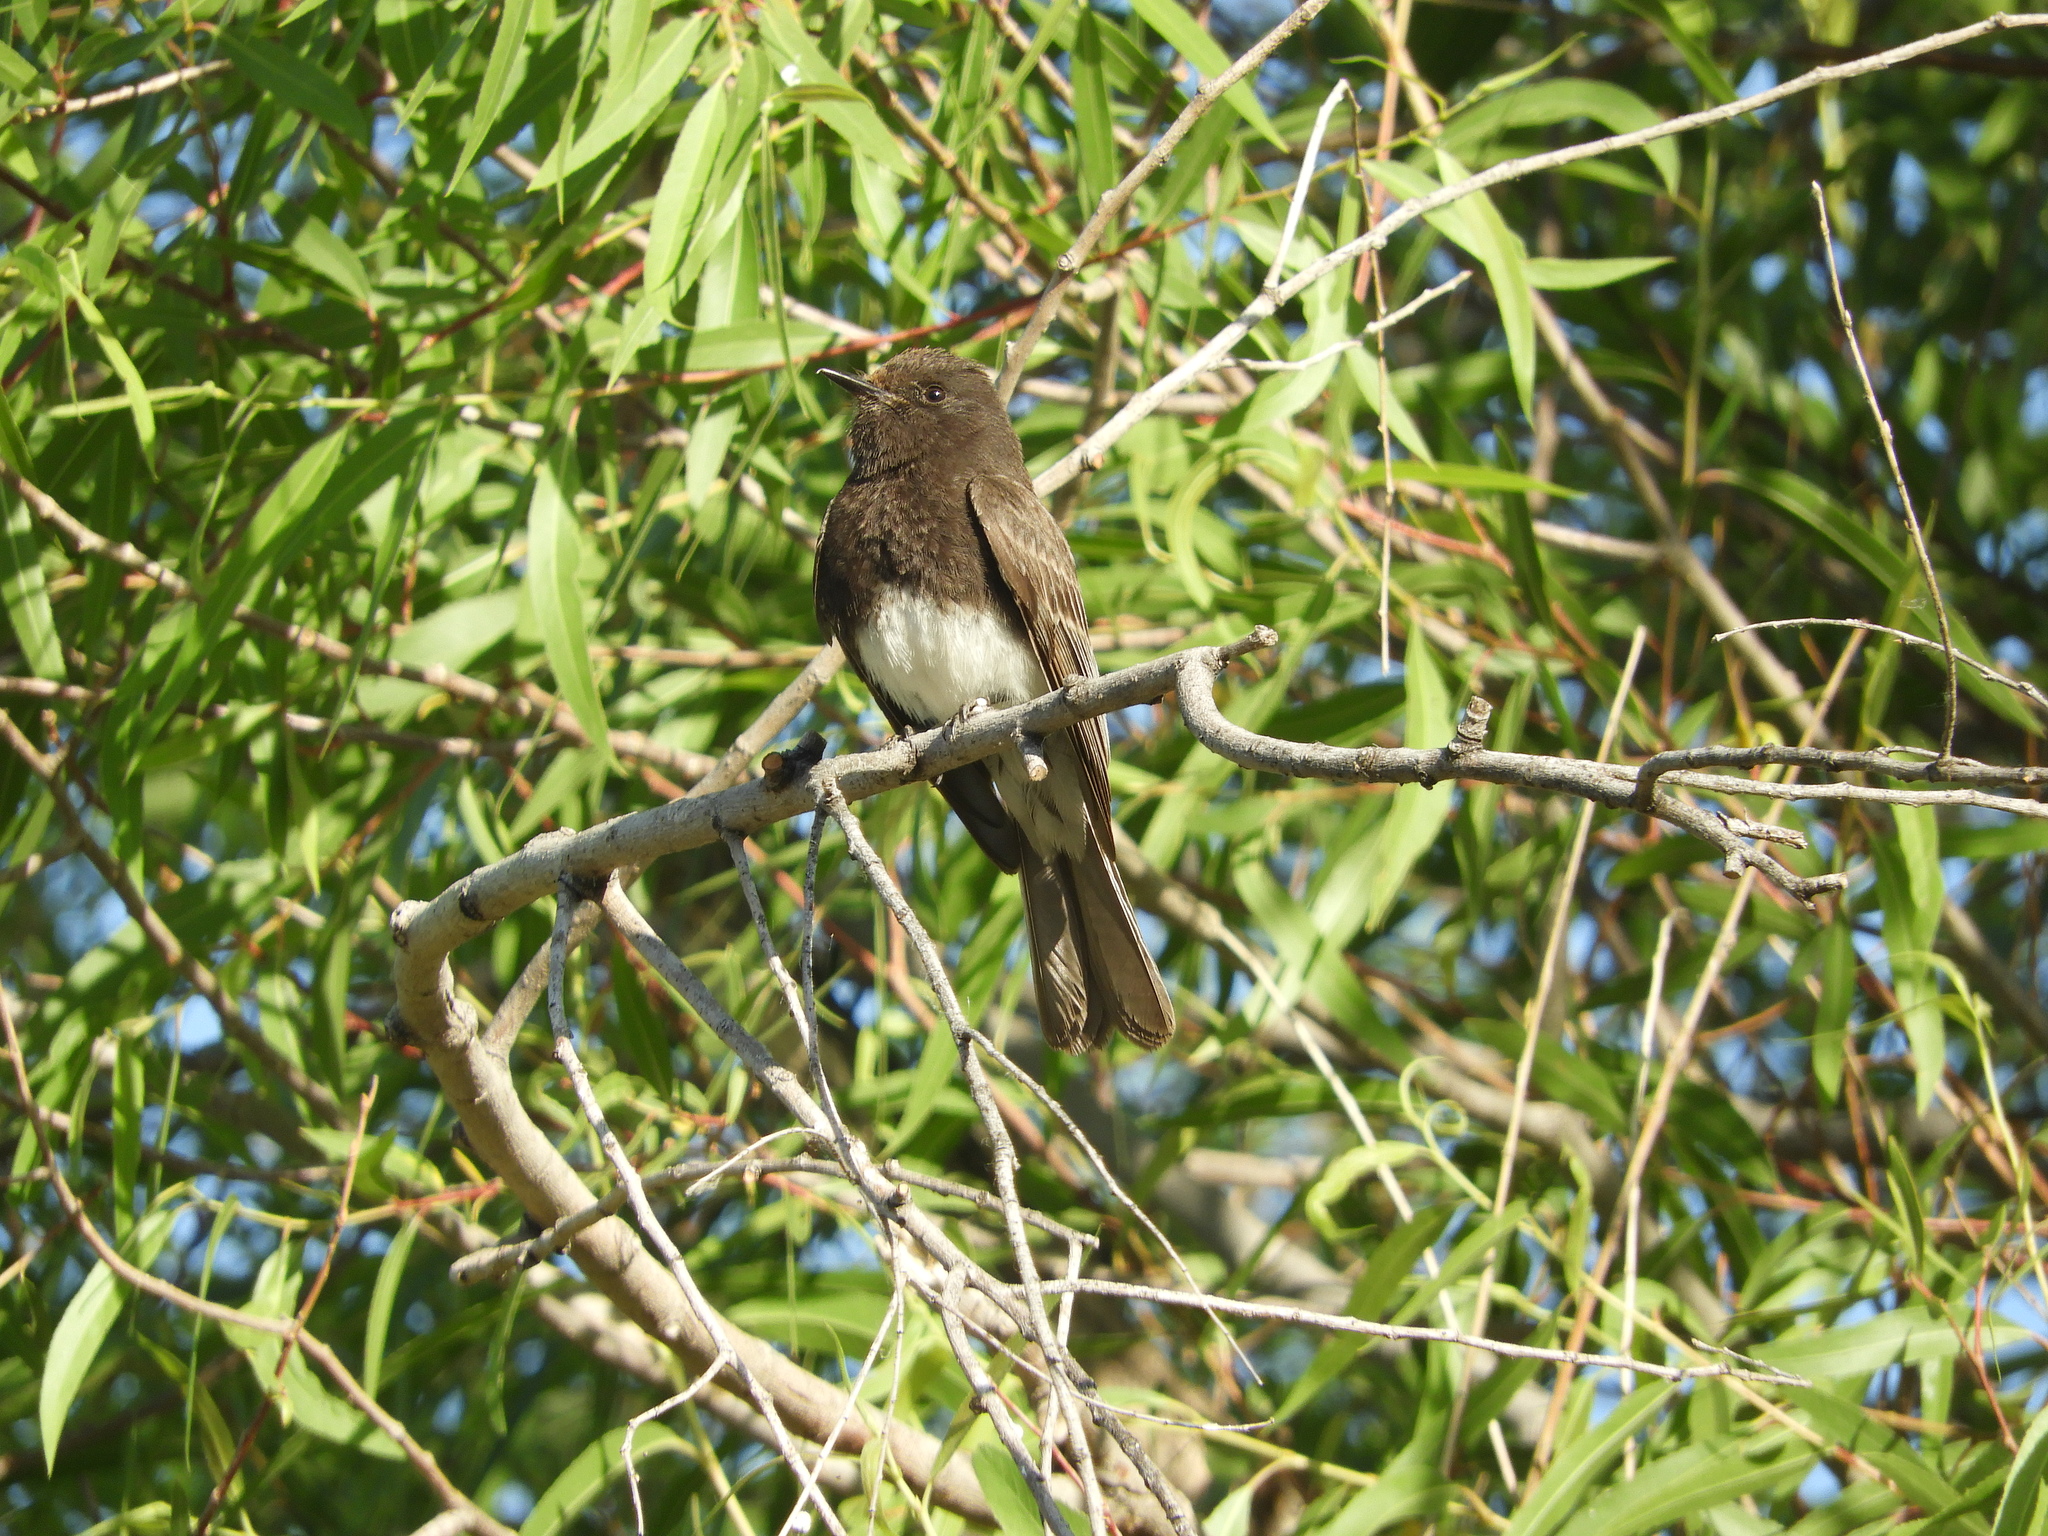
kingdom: Animalia
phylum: Chordata
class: Aves
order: Passeriformes
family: Tyrannidae
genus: Sayornis
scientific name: Sayornis nigricans
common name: Black phoebe
